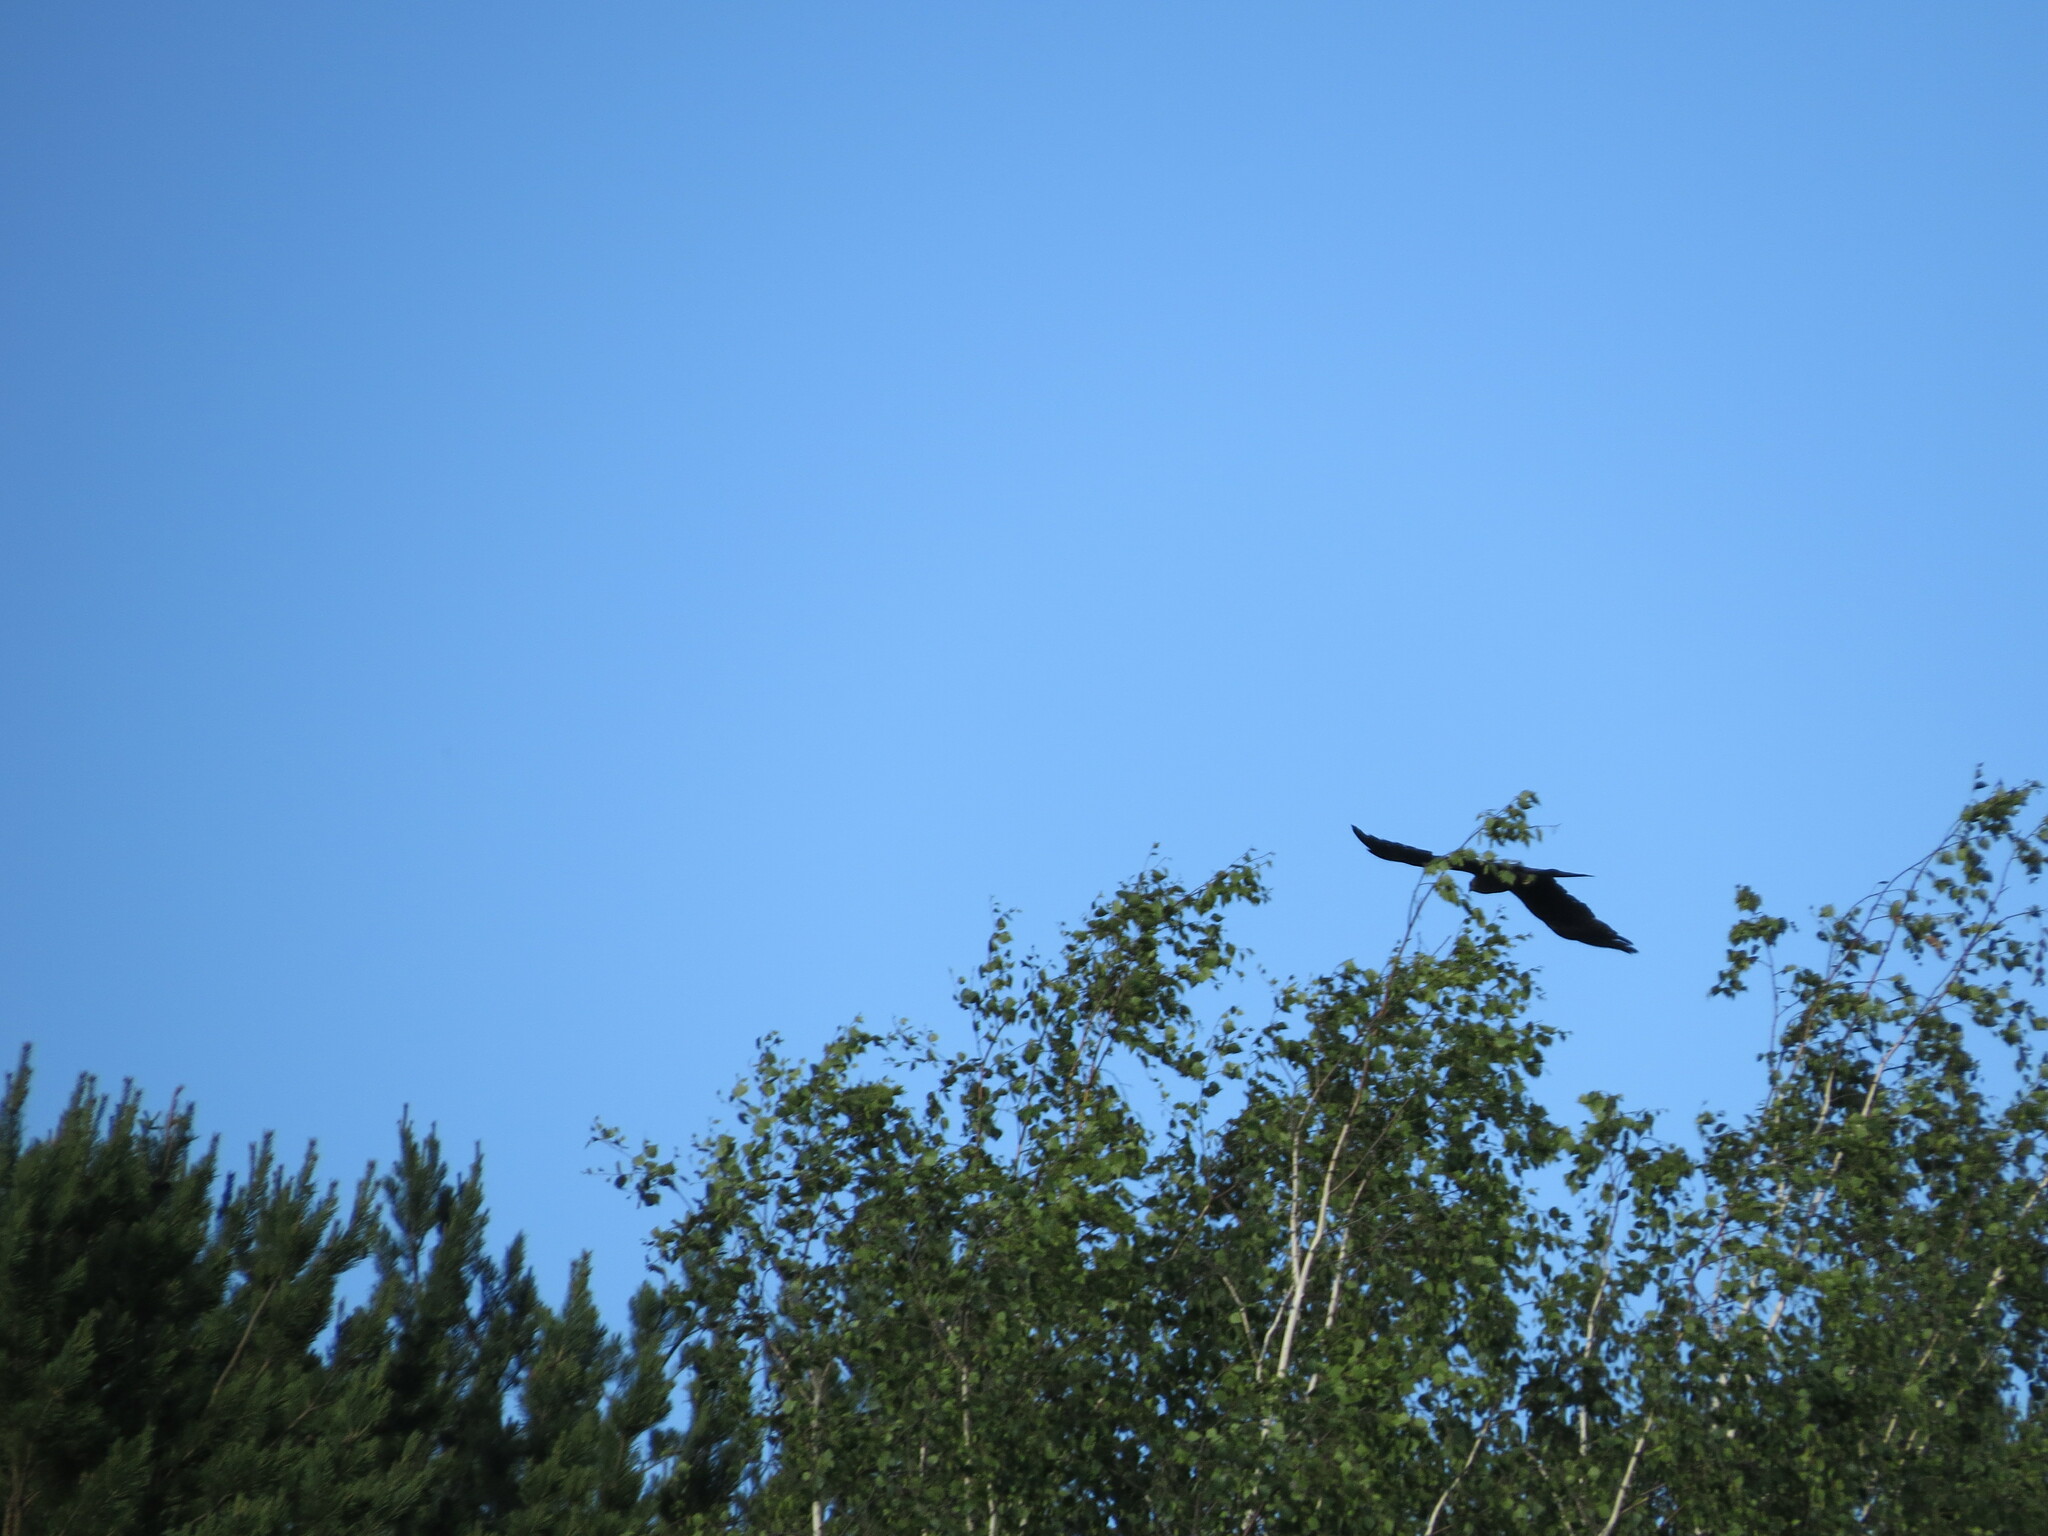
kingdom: Animalia
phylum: Chordata
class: Aves
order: Accipitriformes
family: Accipitridae
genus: Milvus
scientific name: Milvus migrans
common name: Black kite
